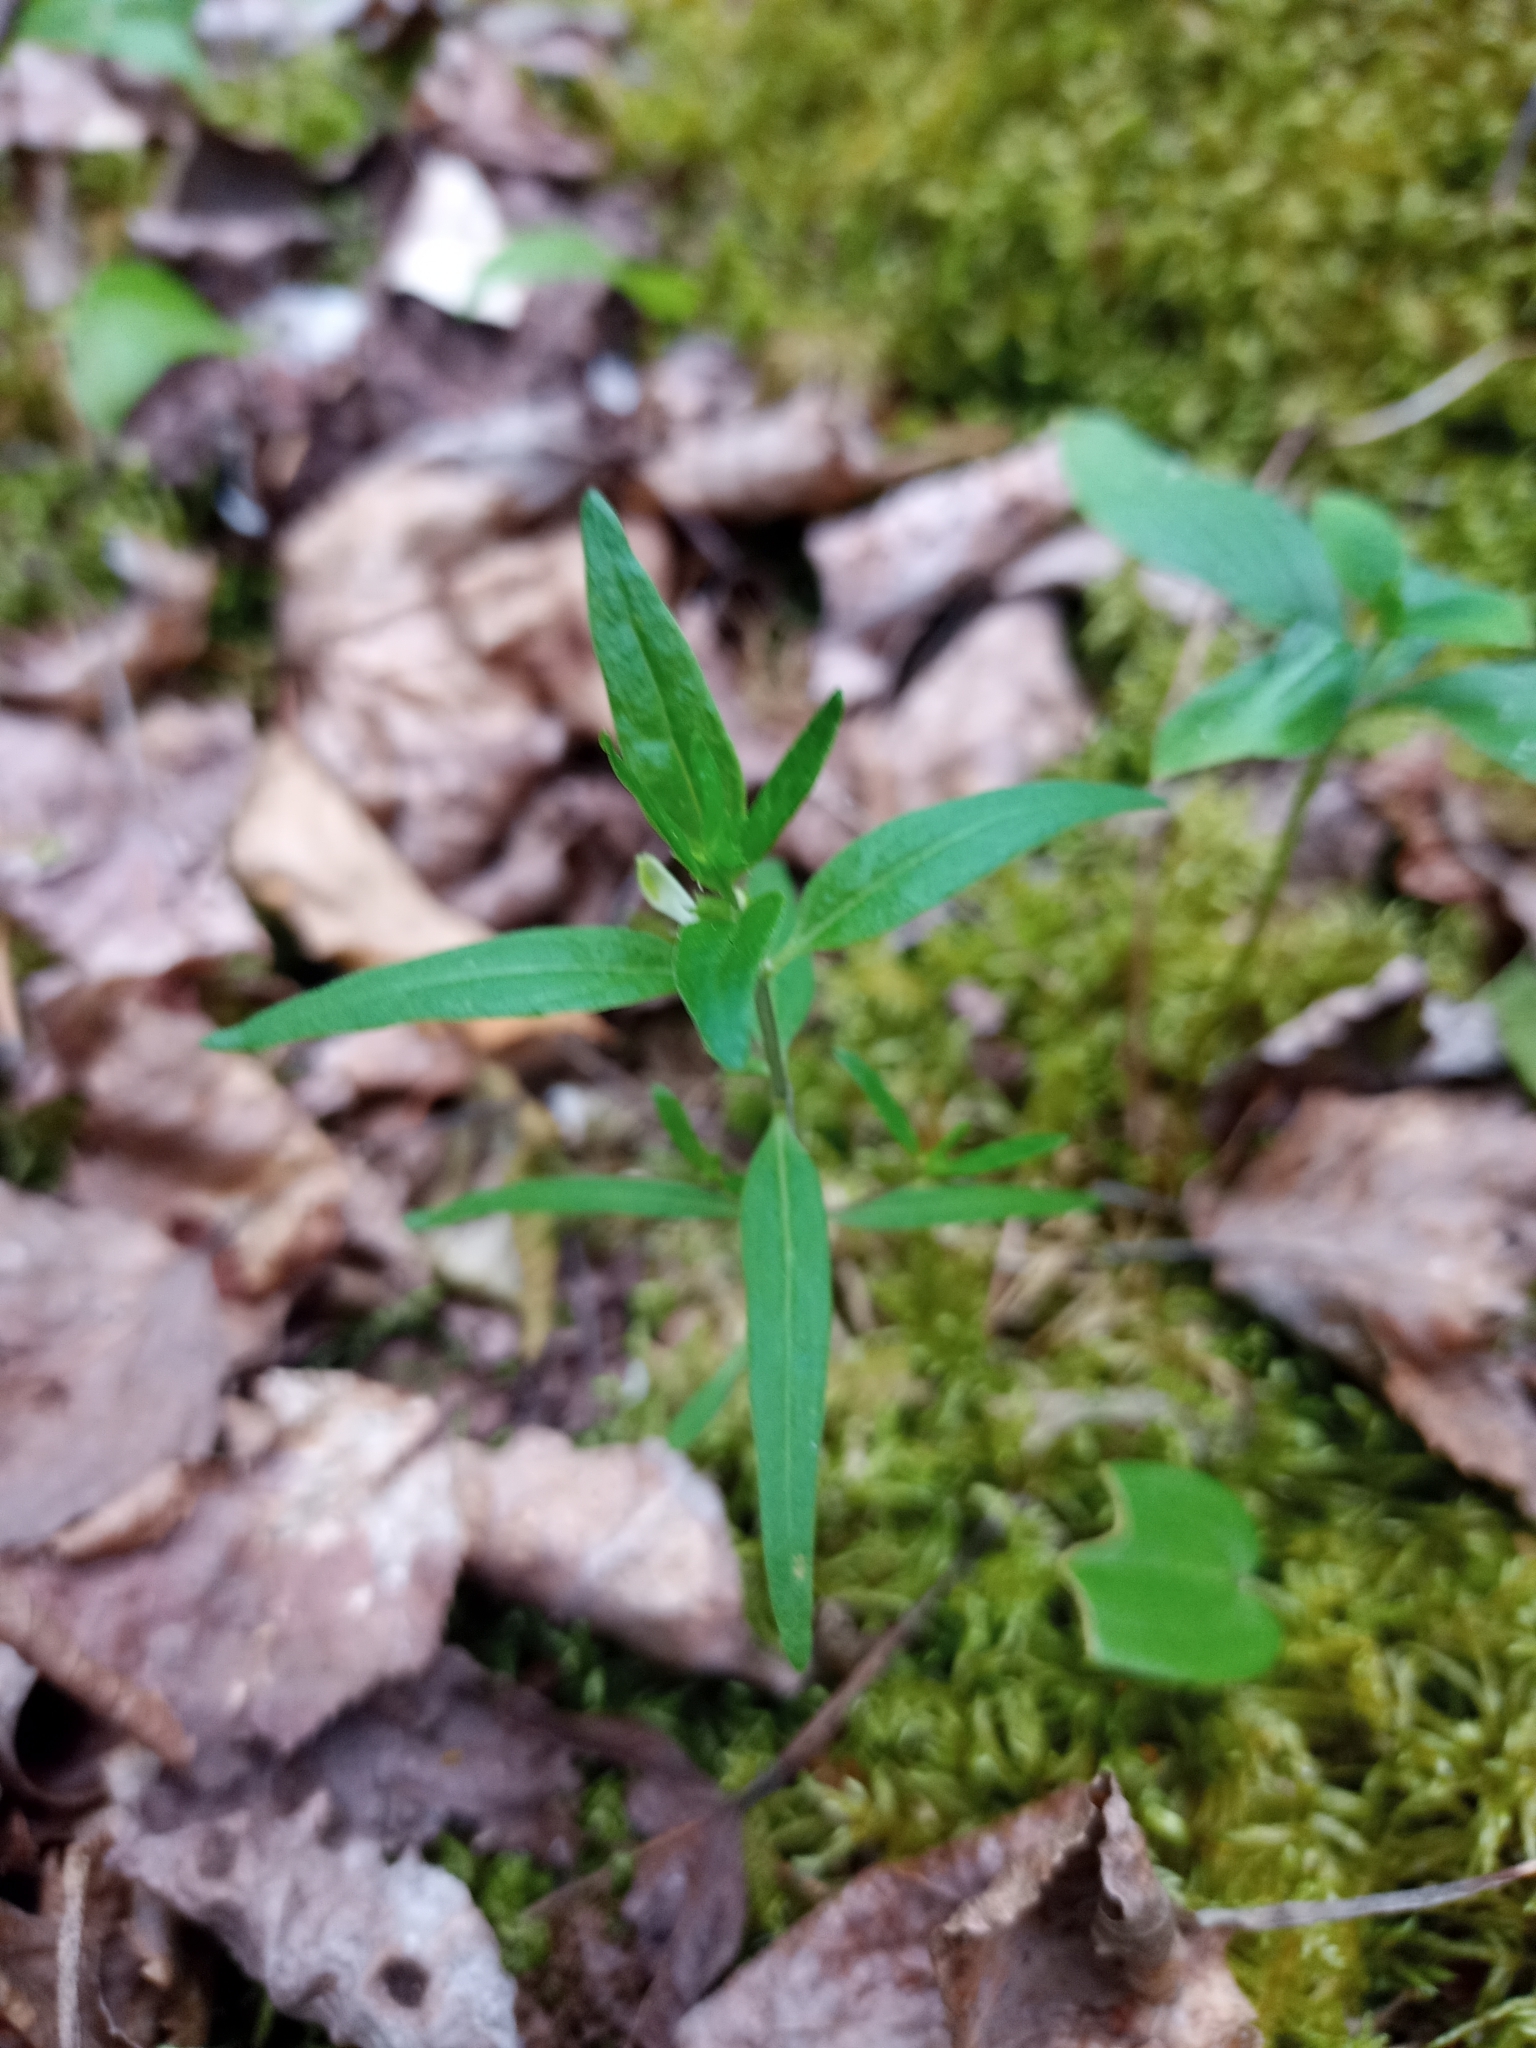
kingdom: Plantae
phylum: Tracheophyta
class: Magnoliopsida
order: Lamiales
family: Orobanchaceae
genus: Melampyrum
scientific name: Melampyrum lineare
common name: American cow-wheat
